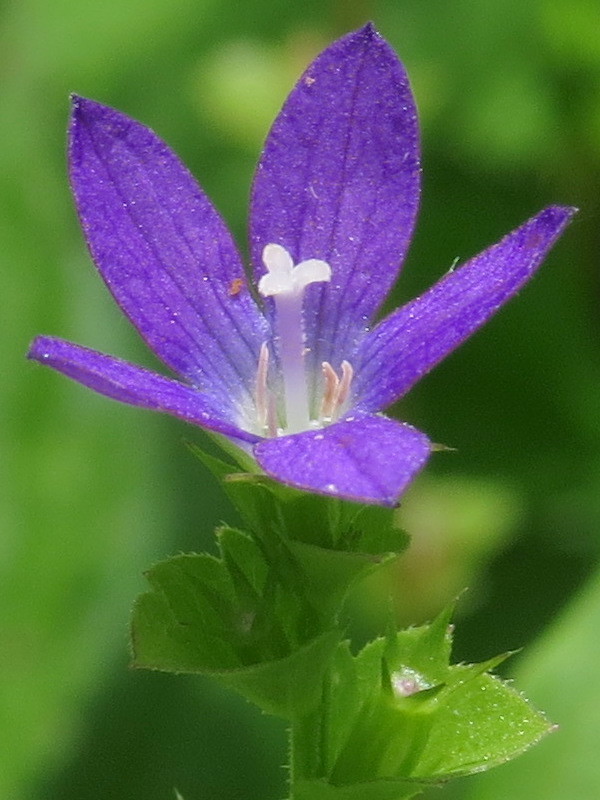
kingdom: Plantae
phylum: Tracheophyta
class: Magnoliopsida
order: Asterales
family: Campanulaceae
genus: Triodanis
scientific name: Triodanis perfoliata
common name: Clasping venus' looking-glass
